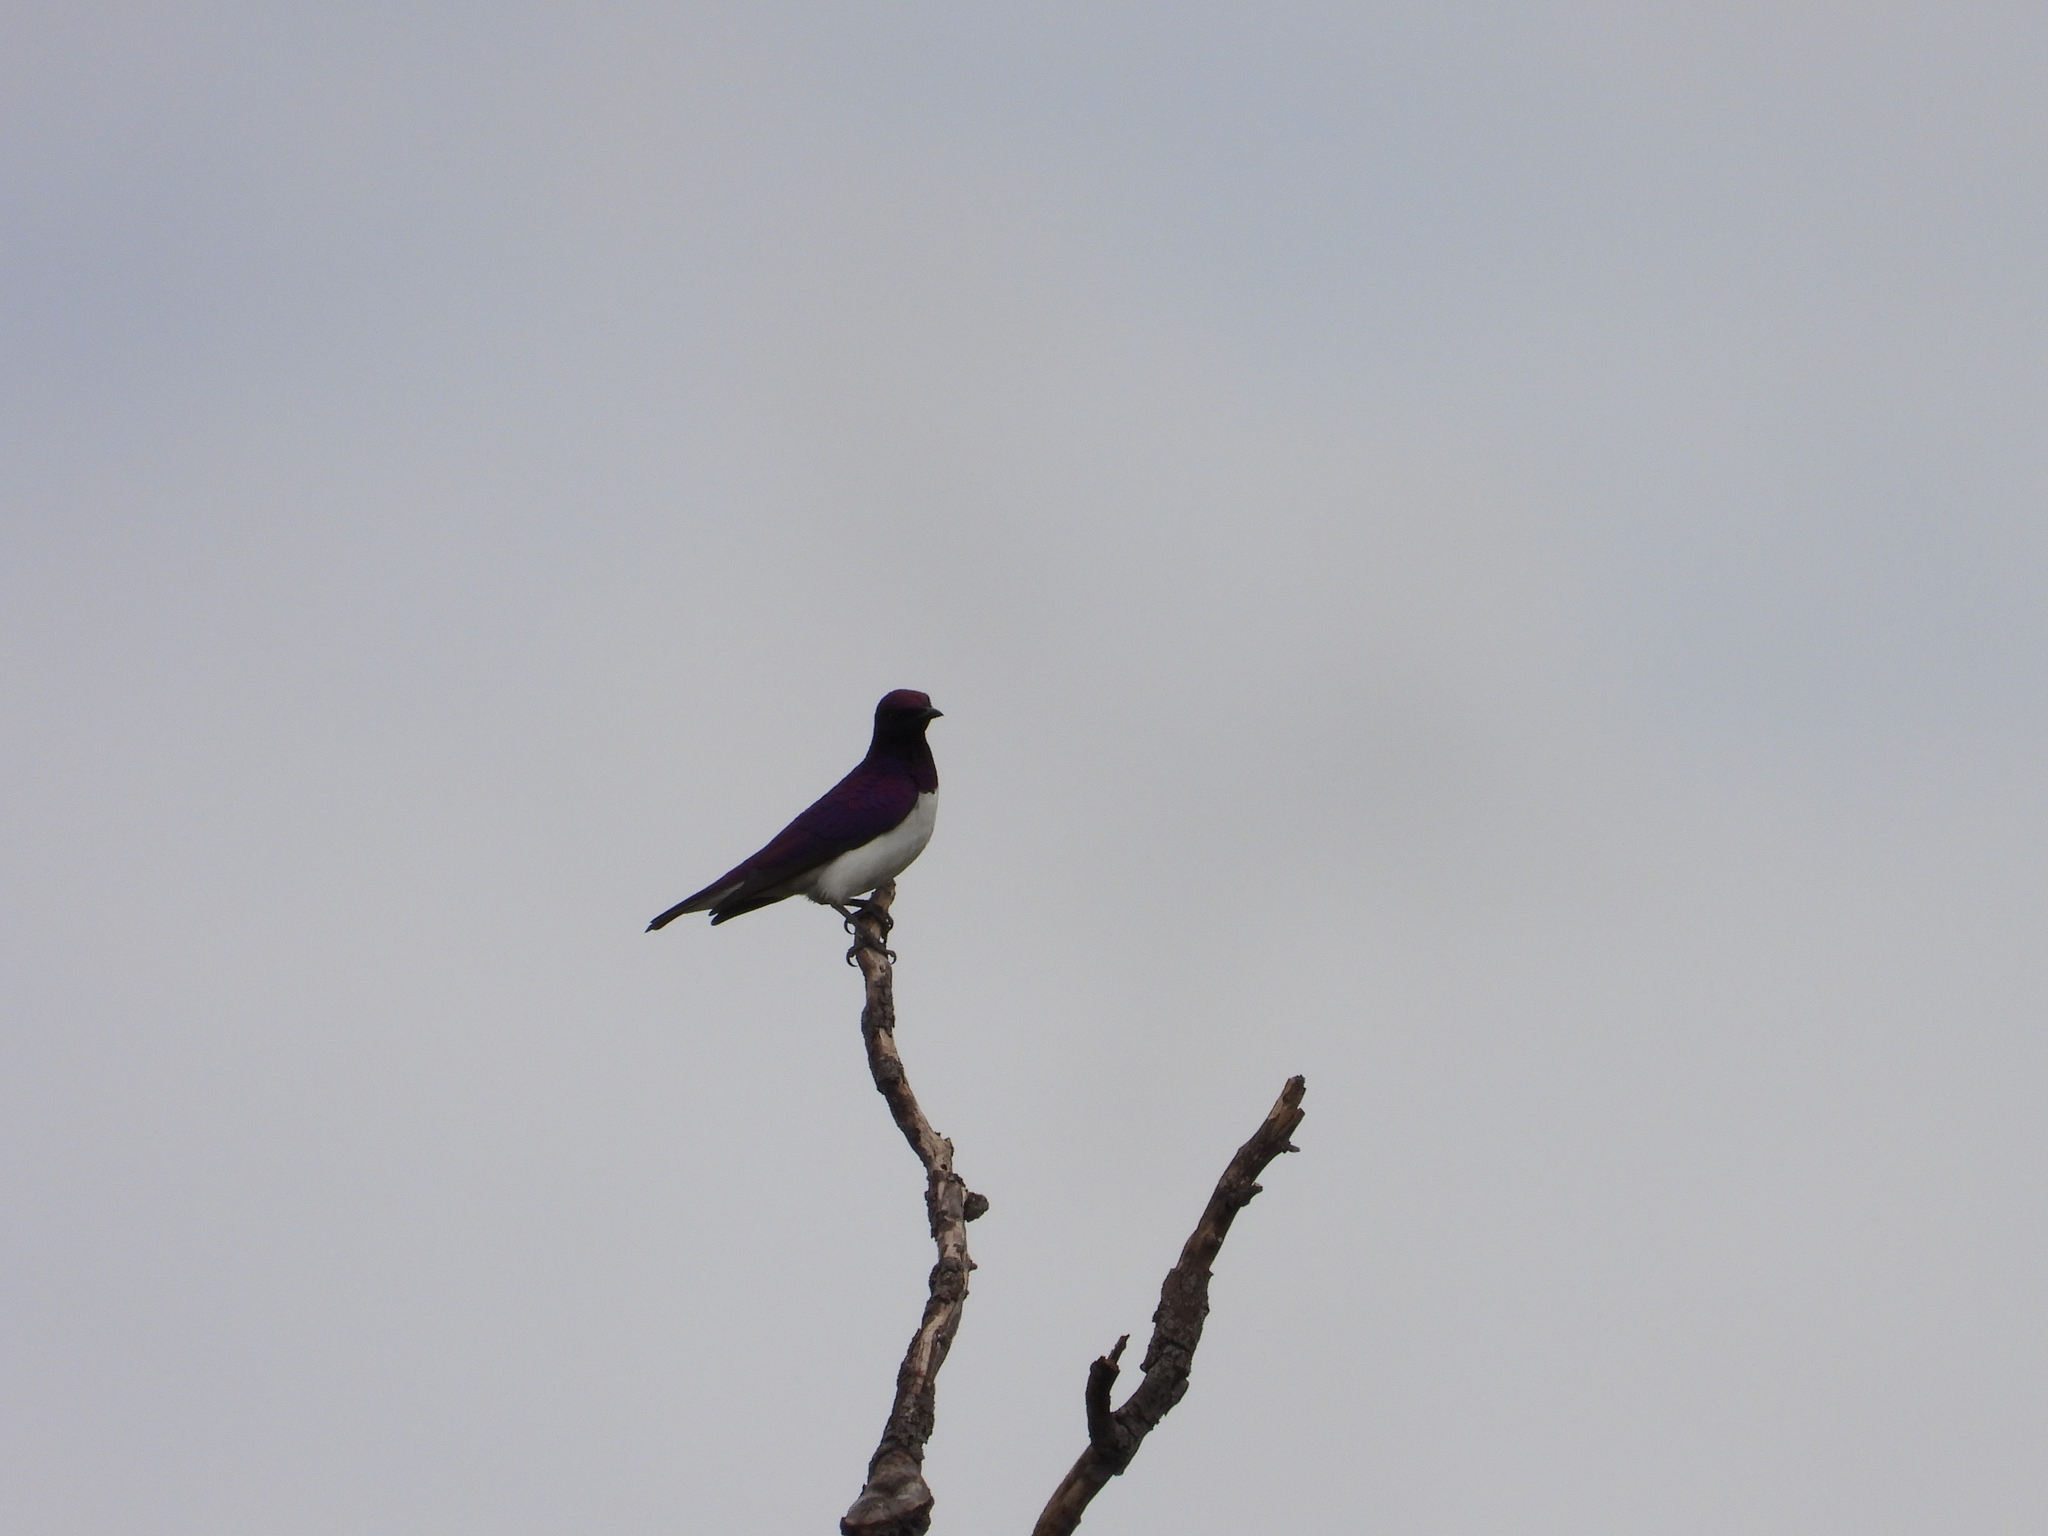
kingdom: Animalia
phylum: Chordata
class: Aves
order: Passeriformes
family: Sturnidae
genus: Cinnyricinclus
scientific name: Cinnyricinclus leucogaster
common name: Violet-backed starling
